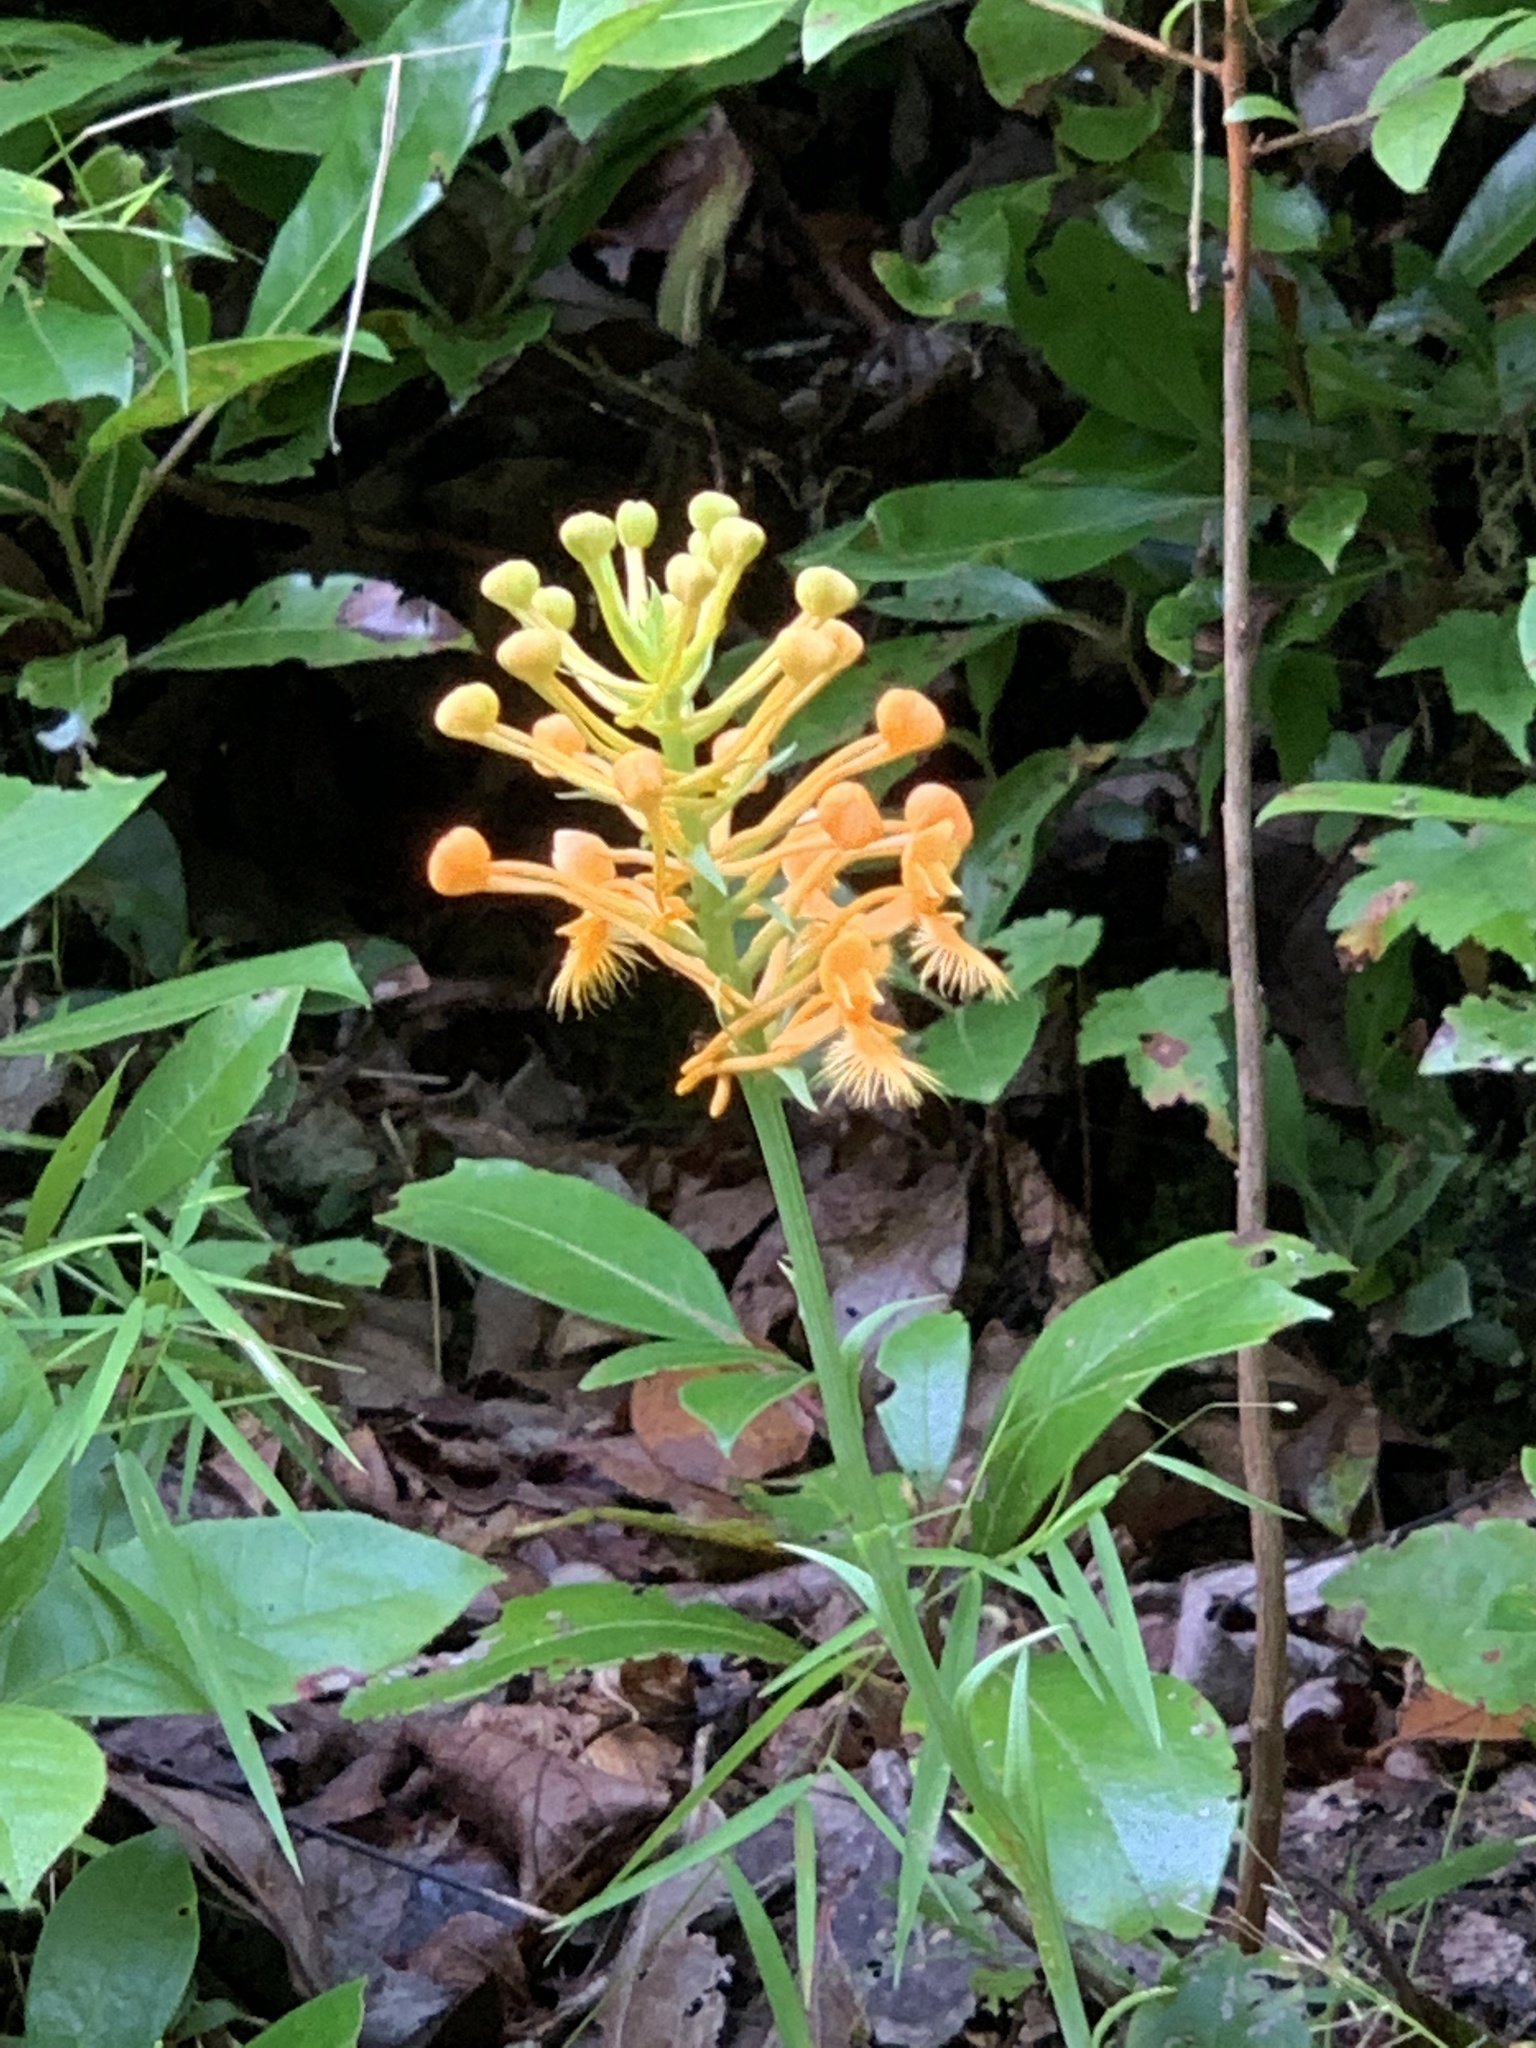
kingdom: Plantae
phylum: Tracheophyta
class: Liliopsida
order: Asparagales
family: Orchidaceae
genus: Platanthera
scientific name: Platanthera ciliaris
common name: Yellow fringed orchid
